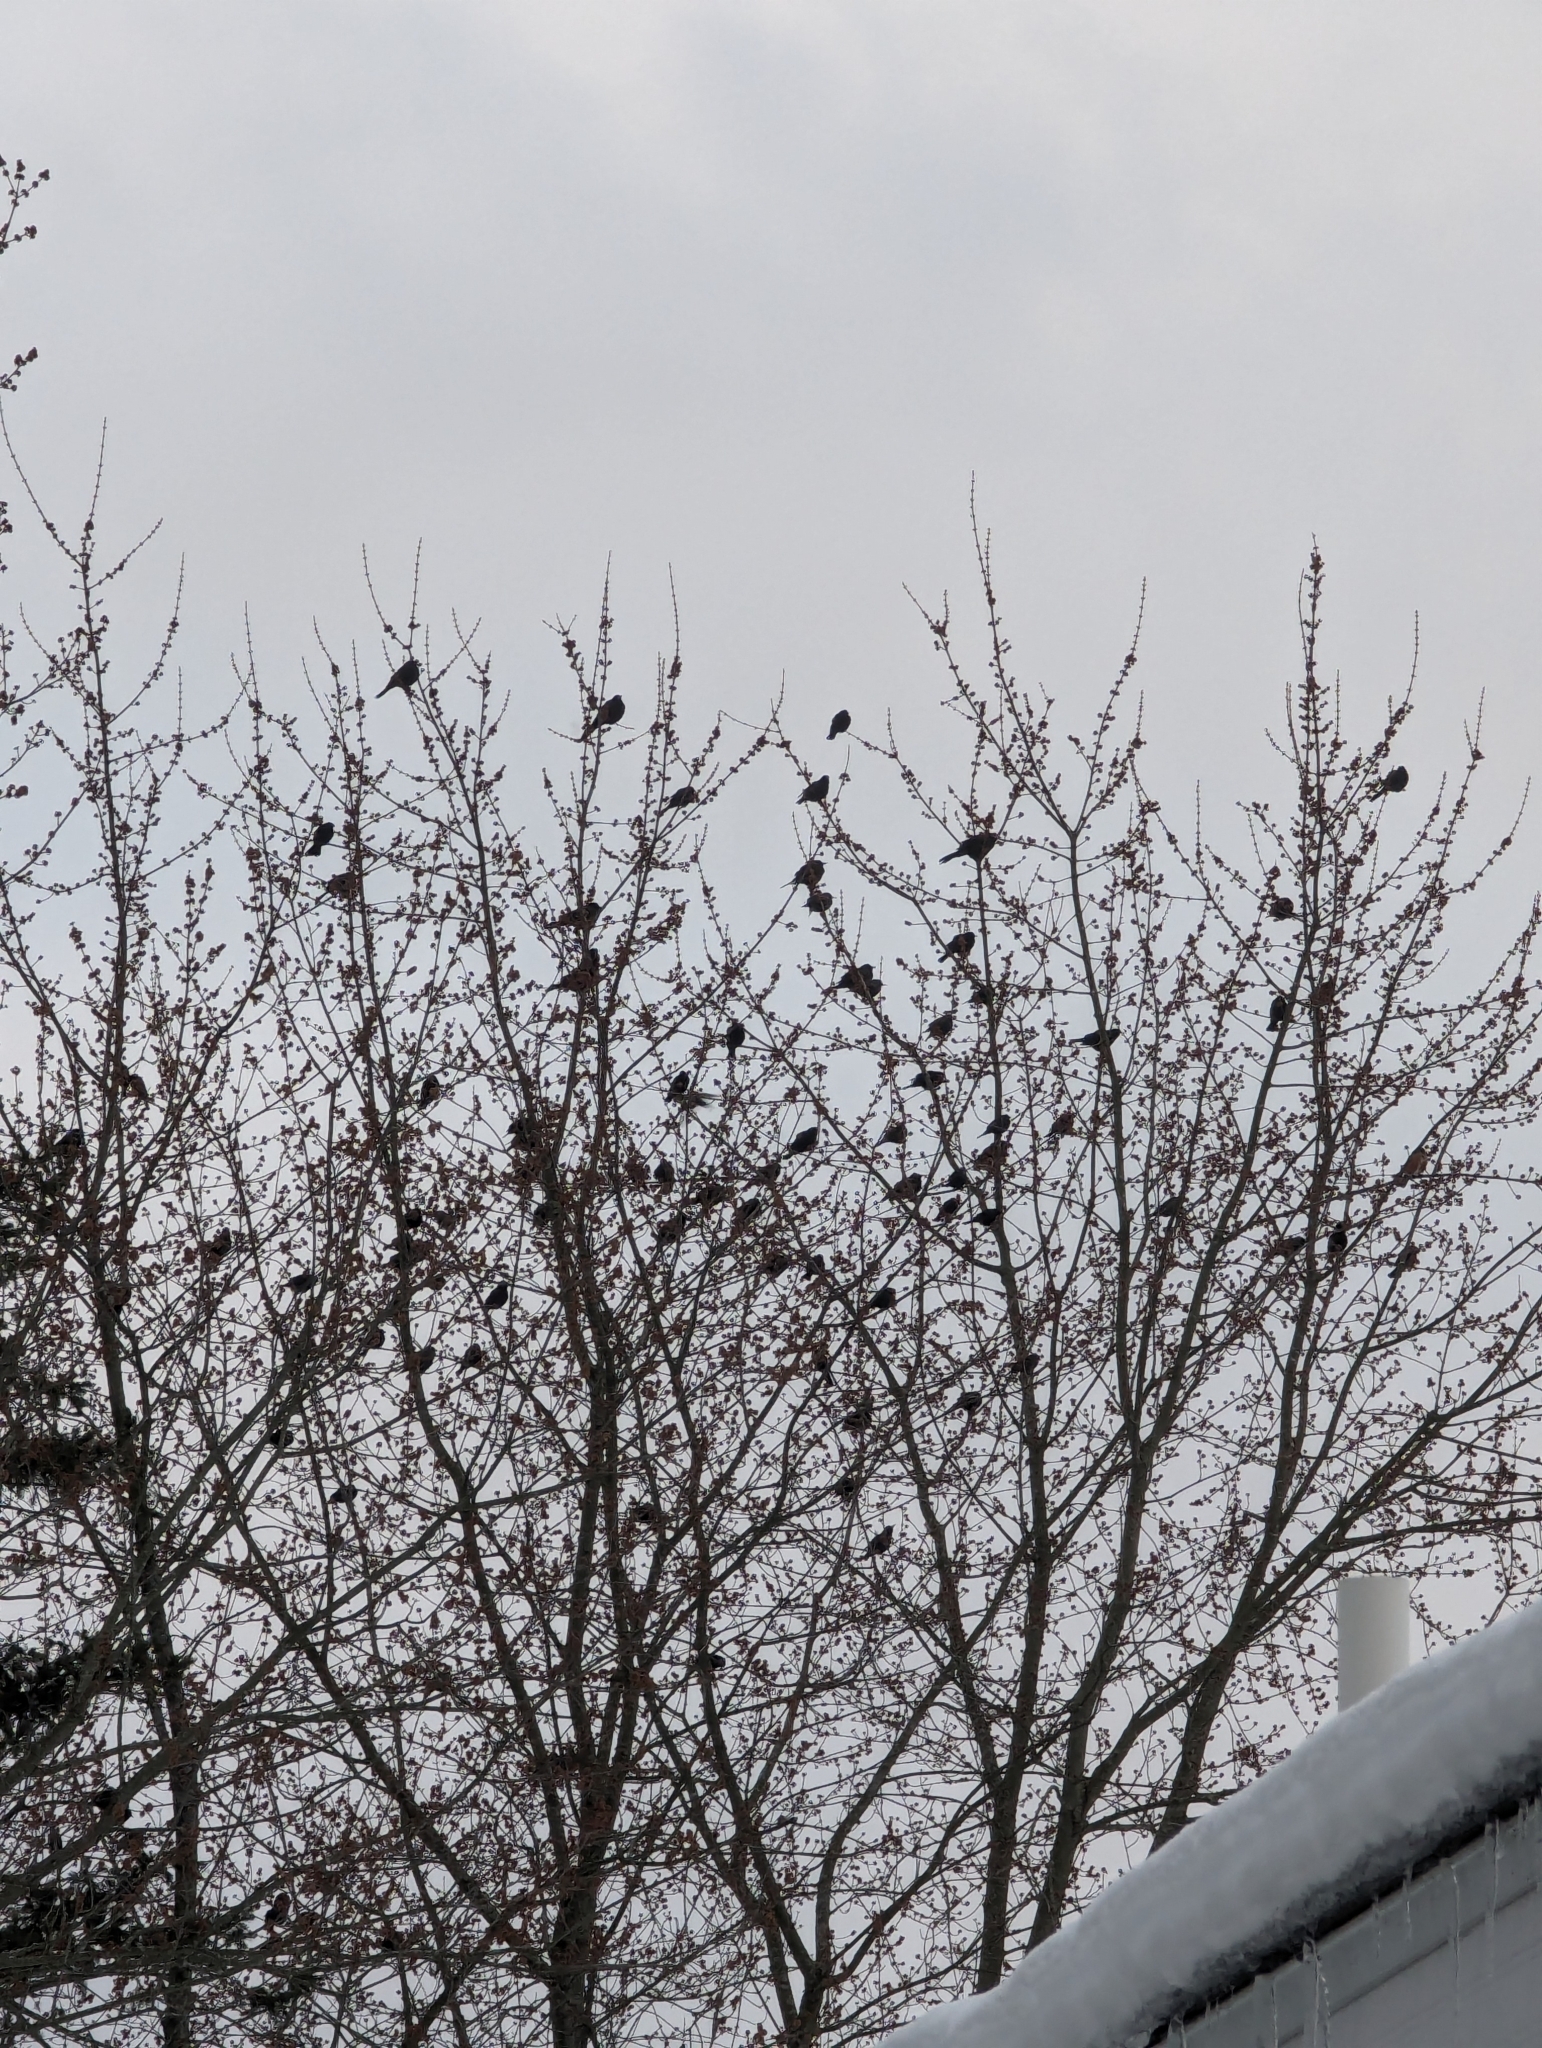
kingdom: Animalia
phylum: Chordata
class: Aves
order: Passeriformes
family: Sturnidae
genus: Sturnus
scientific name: Sturnus vulgaris
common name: Common starling
